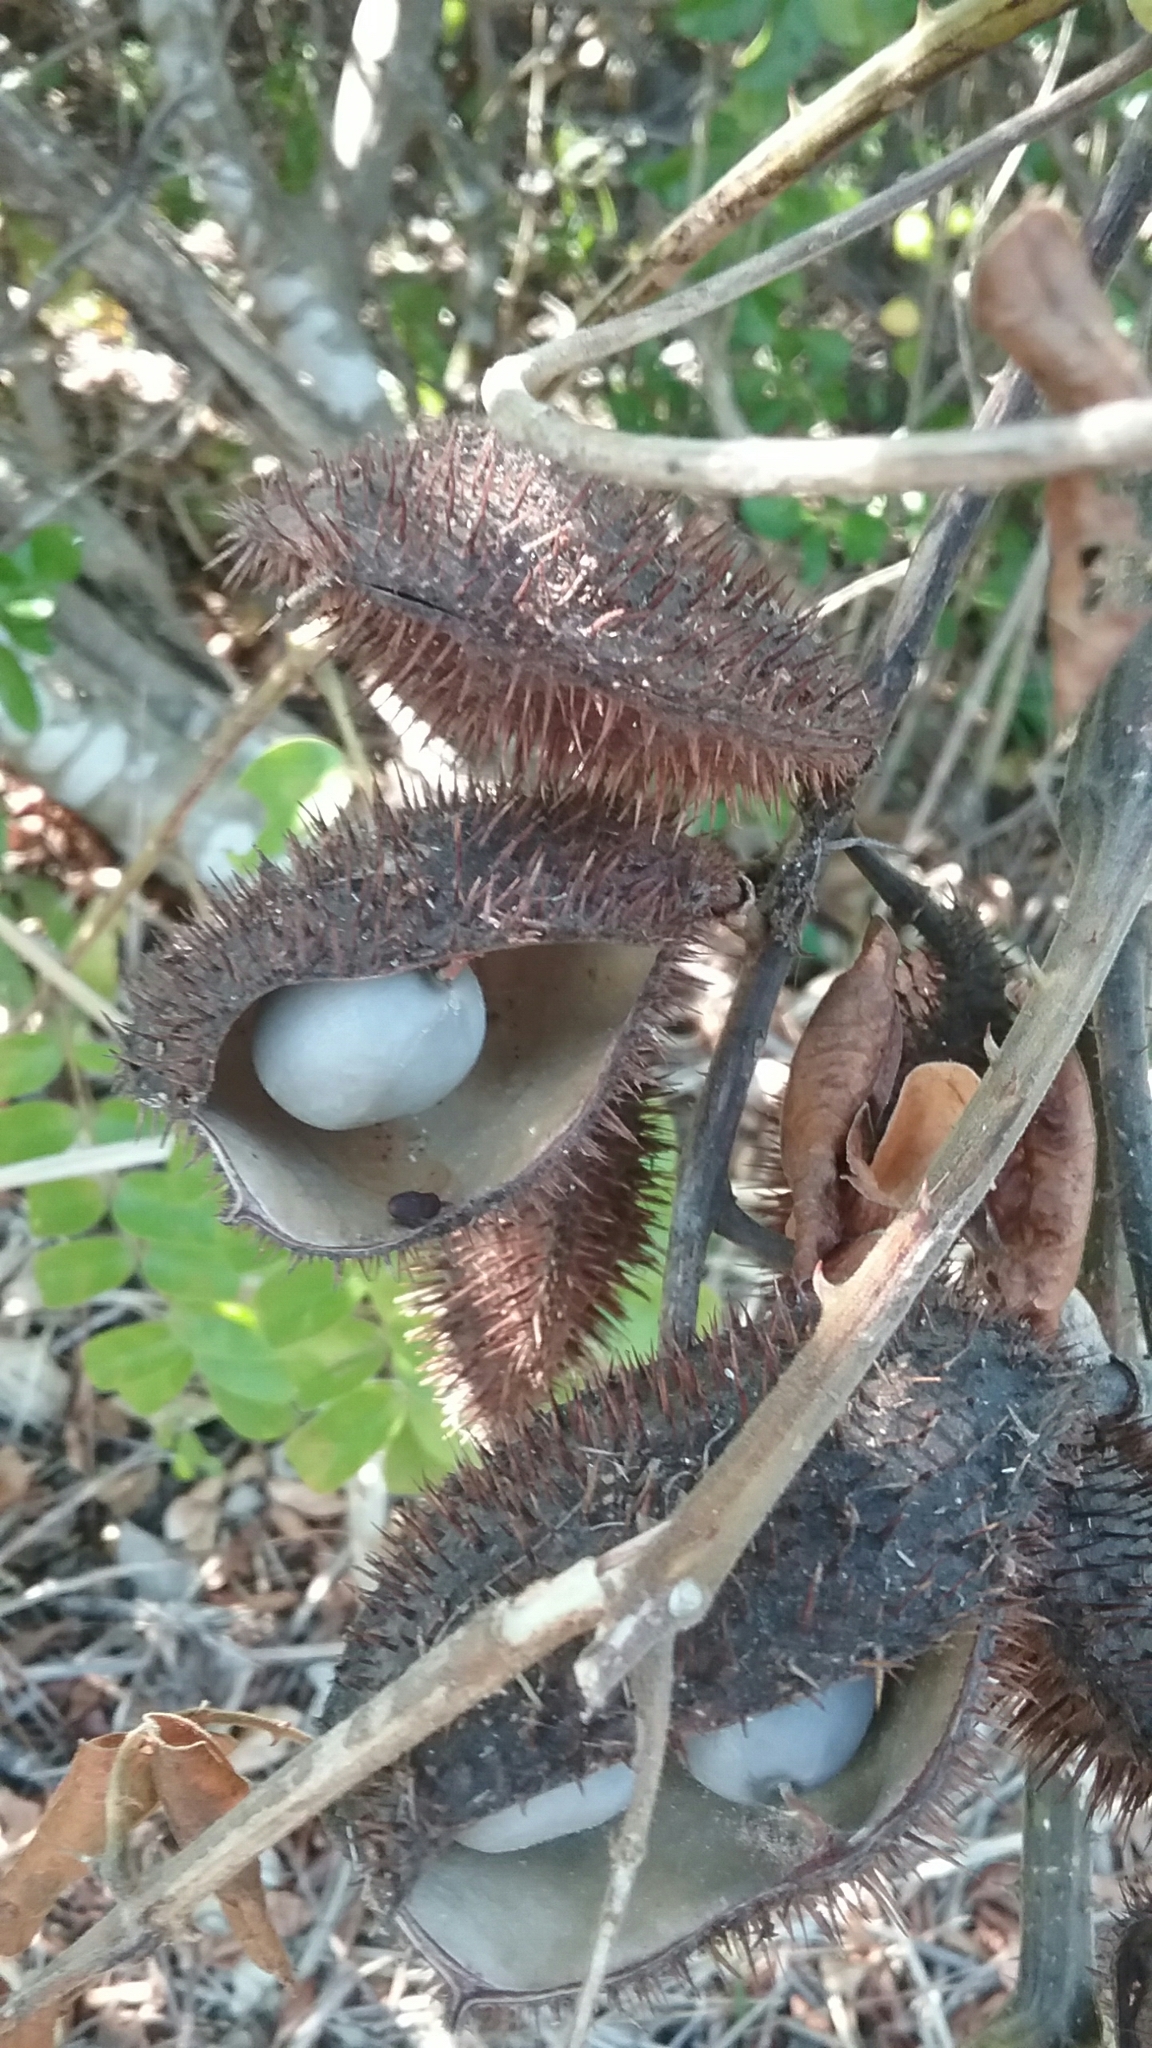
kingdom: Plantae
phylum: Tracheophyta
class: Magnoliopsida
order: Fabales
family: Fabaceae
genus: Guilandina
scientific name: Guilandina bonduc
